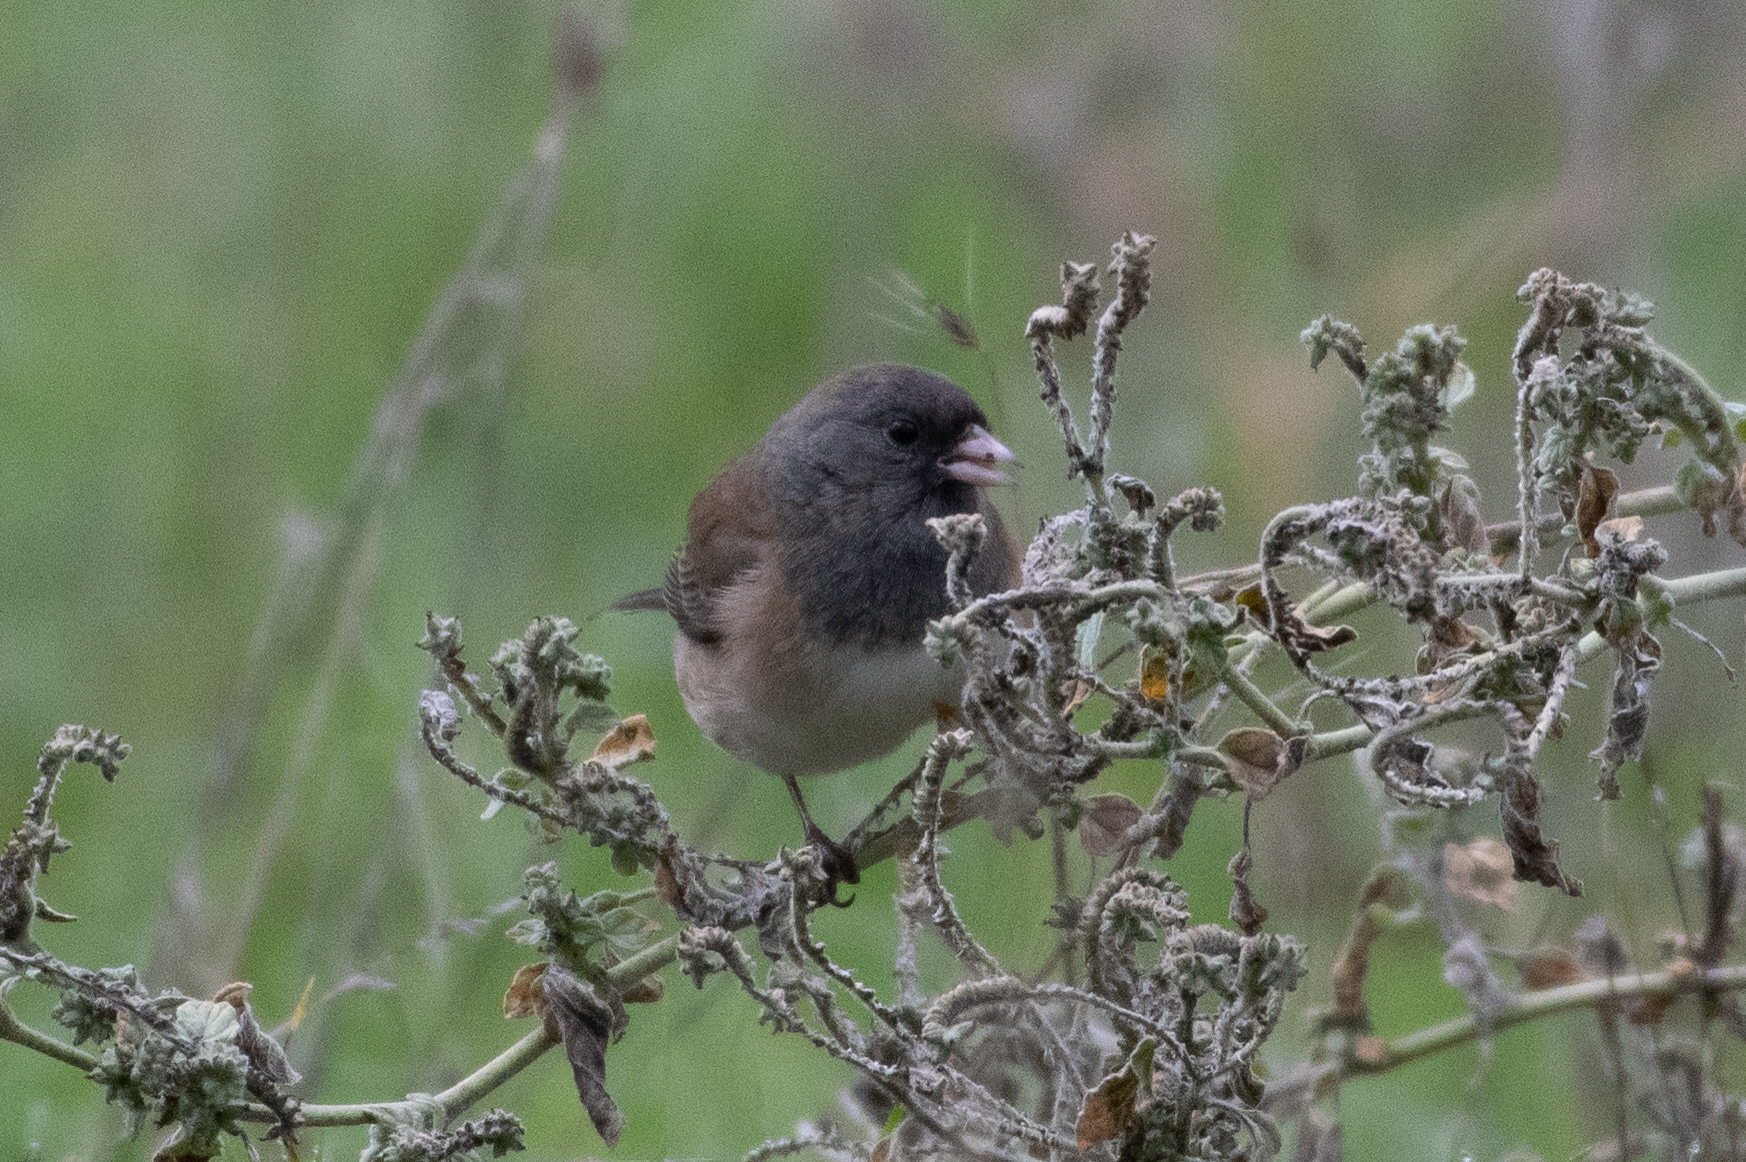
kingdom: Animalia
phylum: Chordata
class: Aves
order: Passeriformes
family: Passerellidae
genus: Junco
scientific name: Junco hyemalis
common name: Dark-eyed junco
